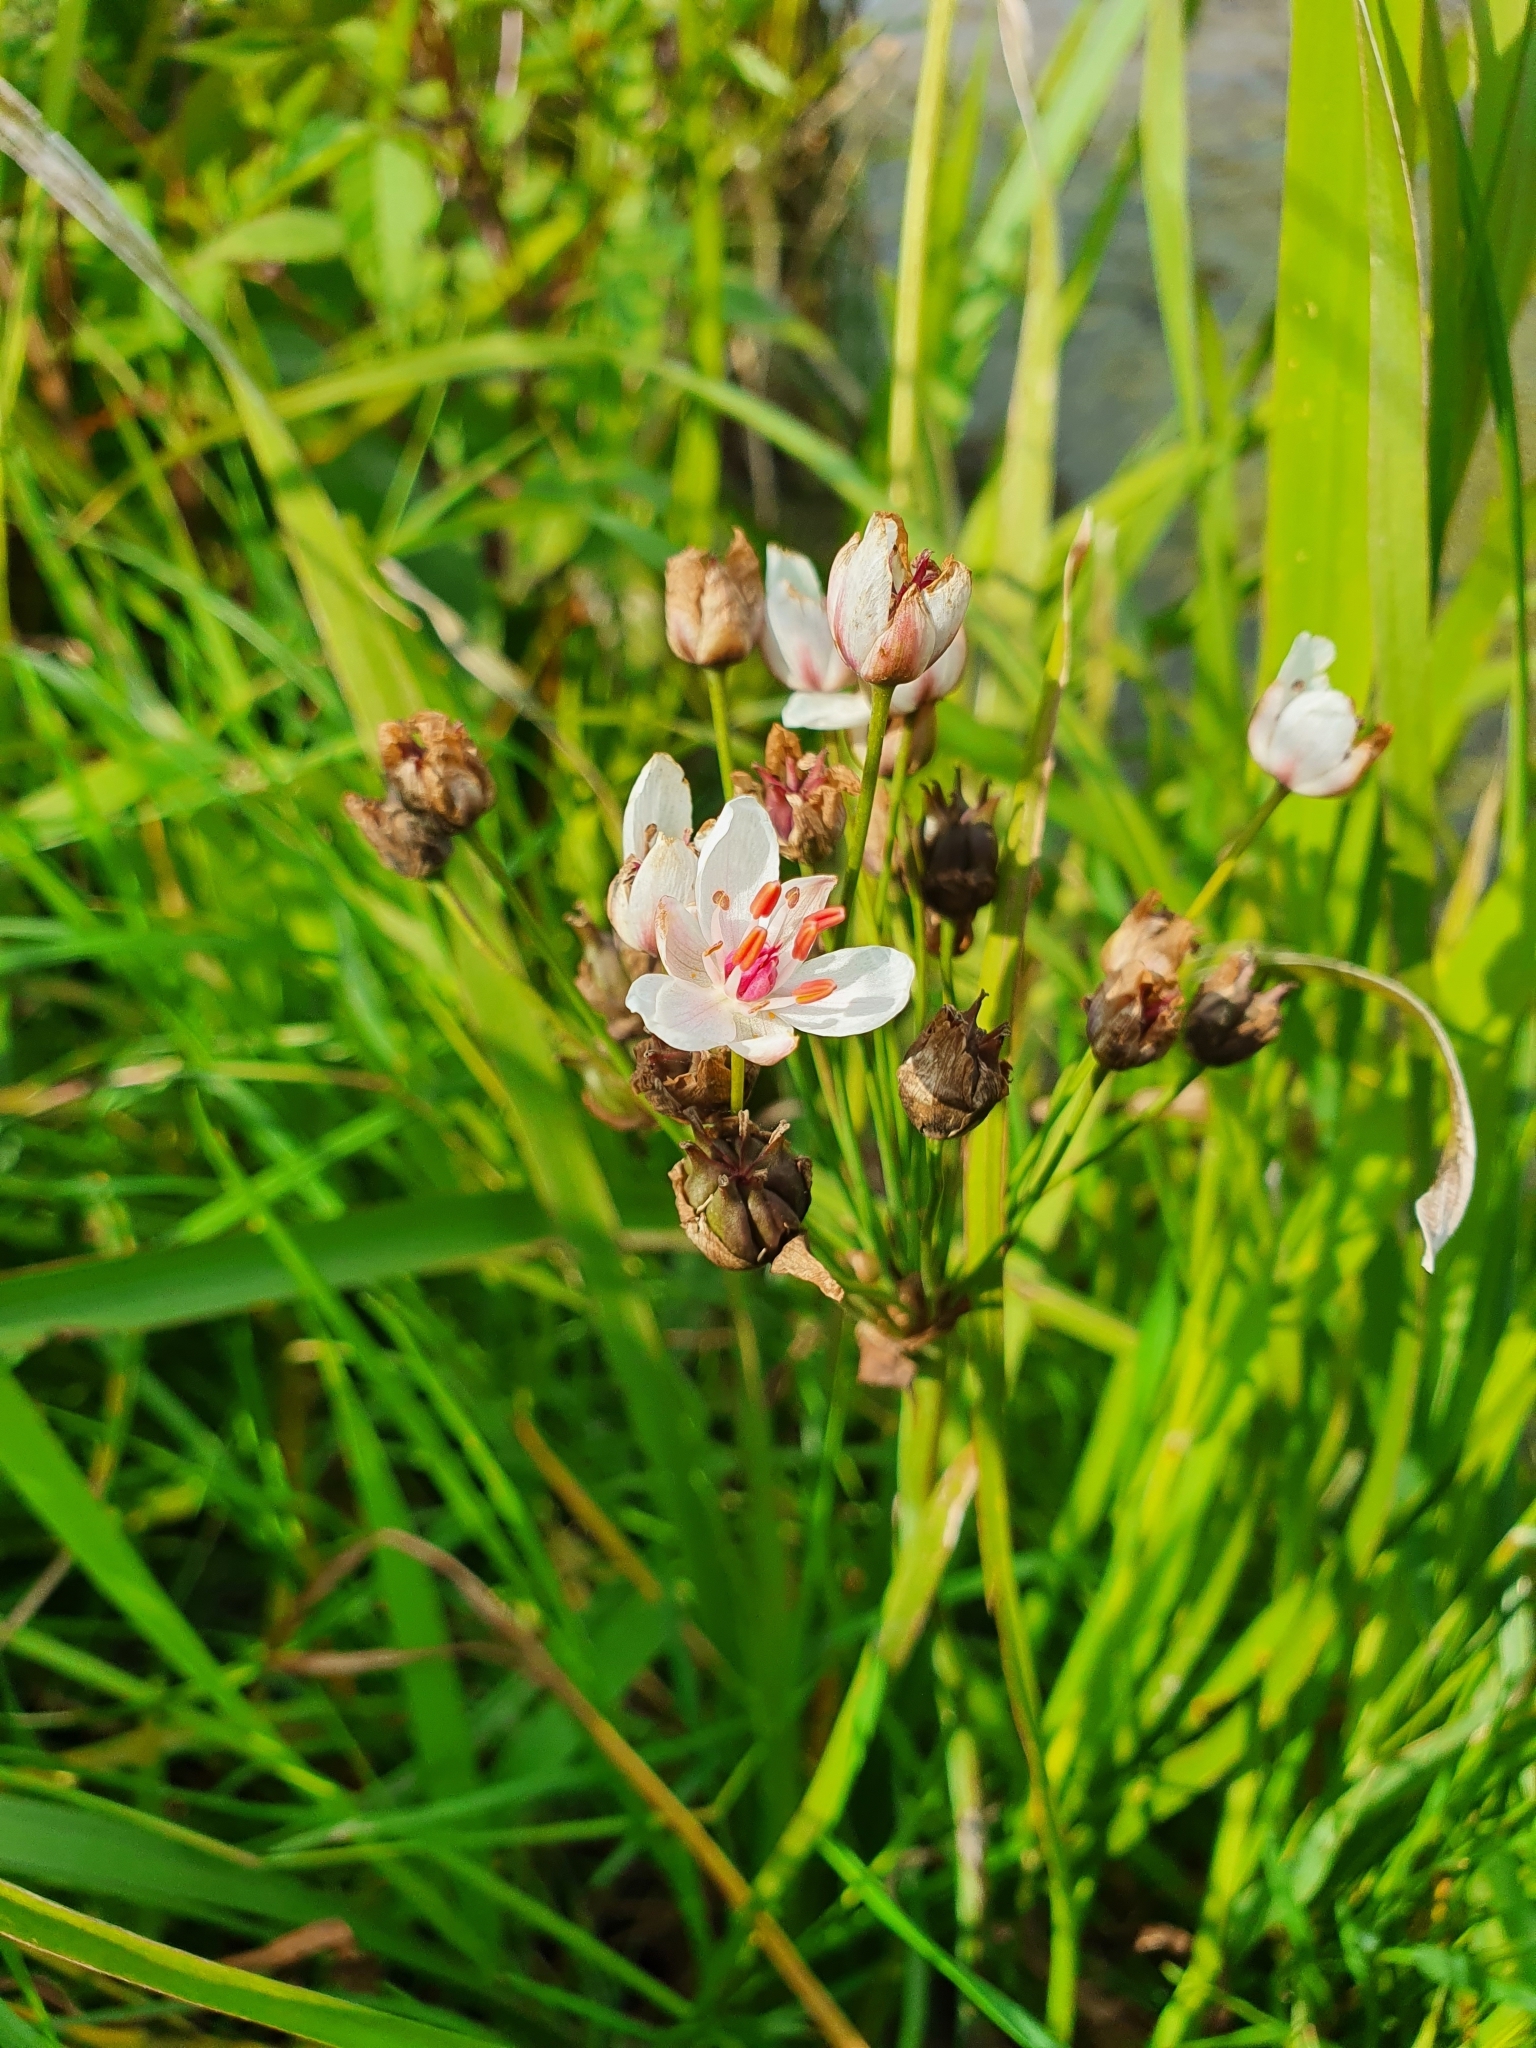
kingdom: Plantae
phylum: Tracheophyta
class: Liliopsida
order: Alismatales
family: Butomaceae
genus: Butomus
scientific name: Butomus umbellatus
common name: Flowering-rush
